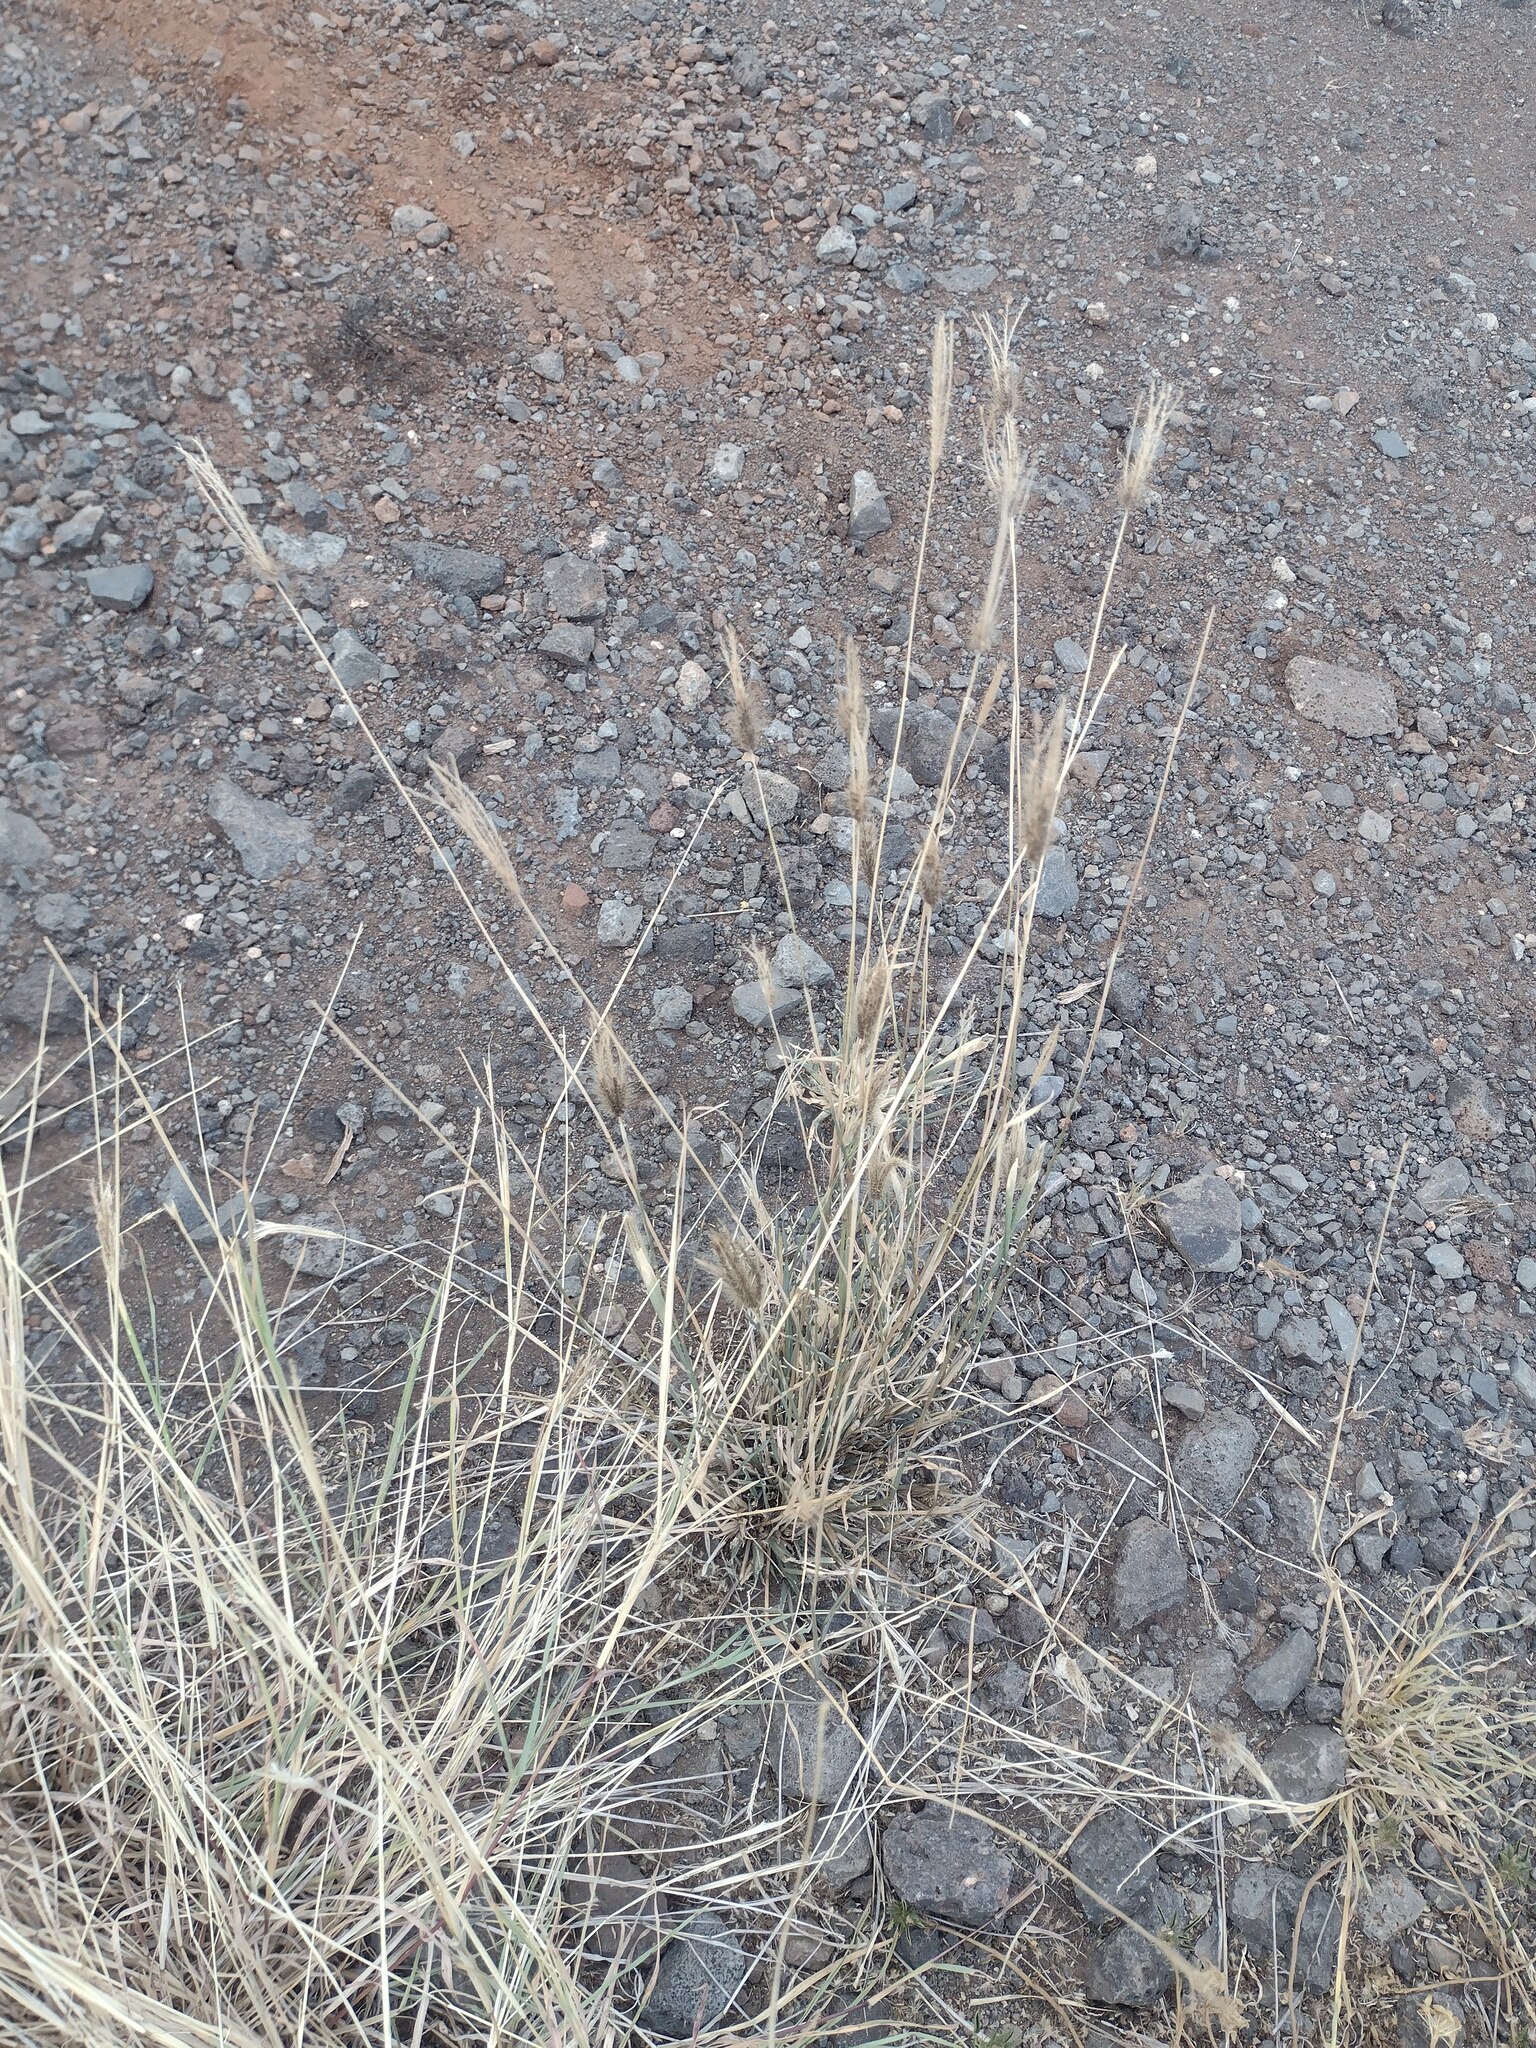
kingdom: Plantae
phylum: Tracheophyta
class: Liliopsida
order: Poales
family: Poaceae
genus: Chloris
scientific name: Chloris barbata
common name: Swollen fingergrass
